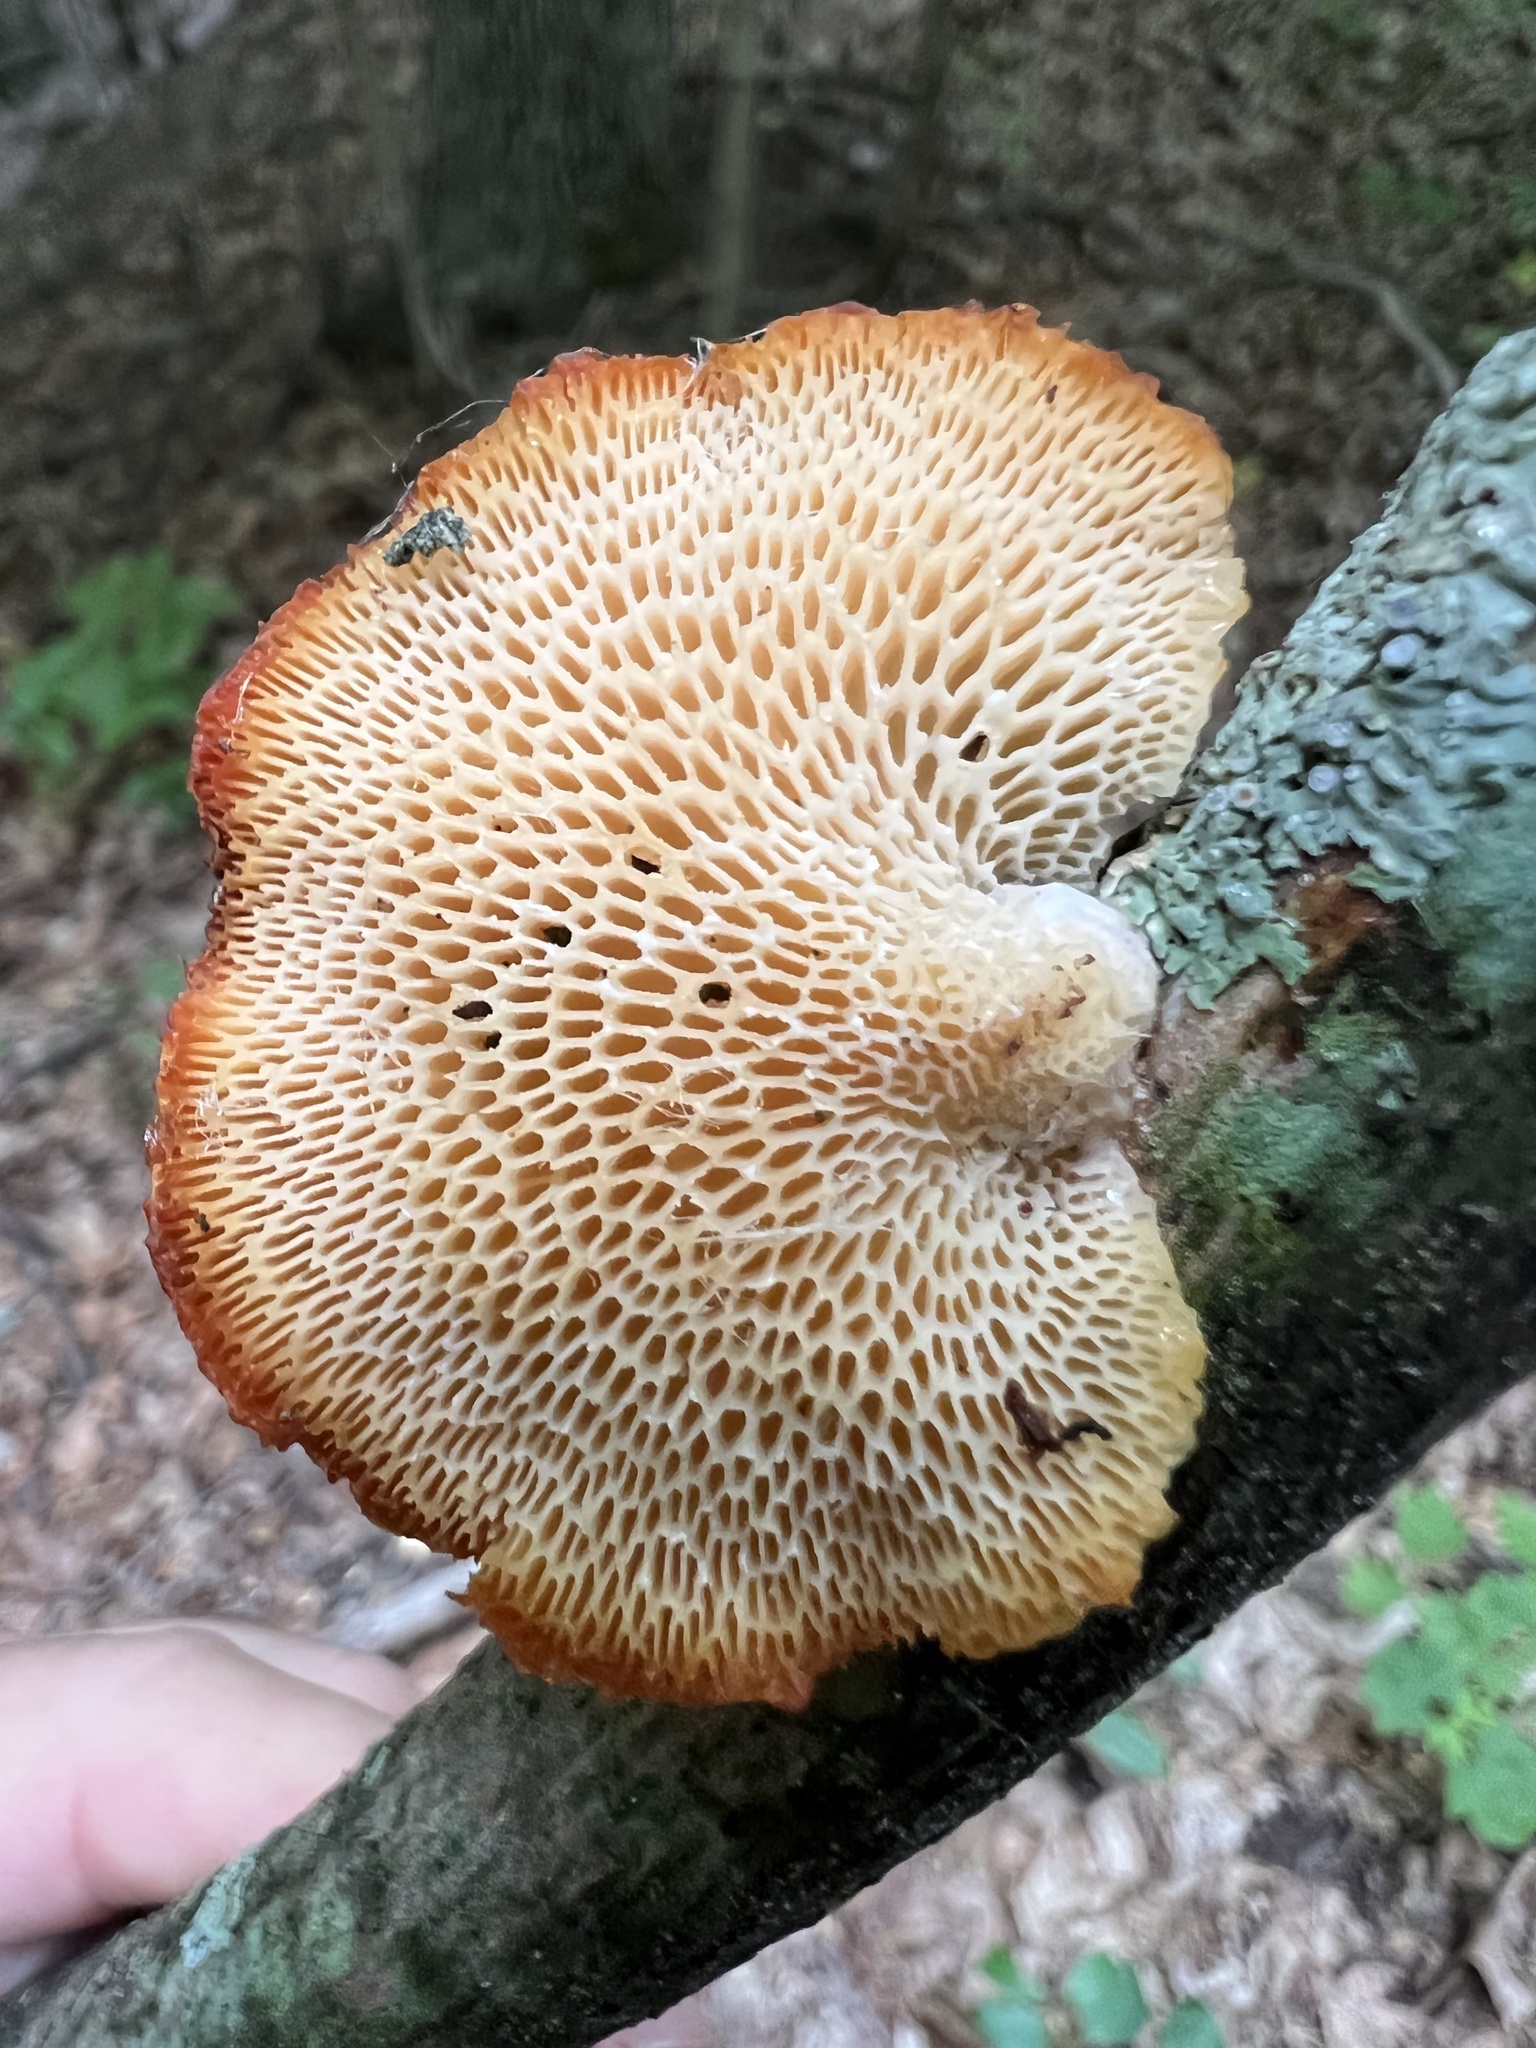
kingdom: Fungi
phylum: Basidiomycota
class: Agaricomycetes
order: Polyporales
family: Polyporaceae
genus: Neofavolus
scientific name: Neofavolus alveolaris
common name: Hexagonal-pored polypore
